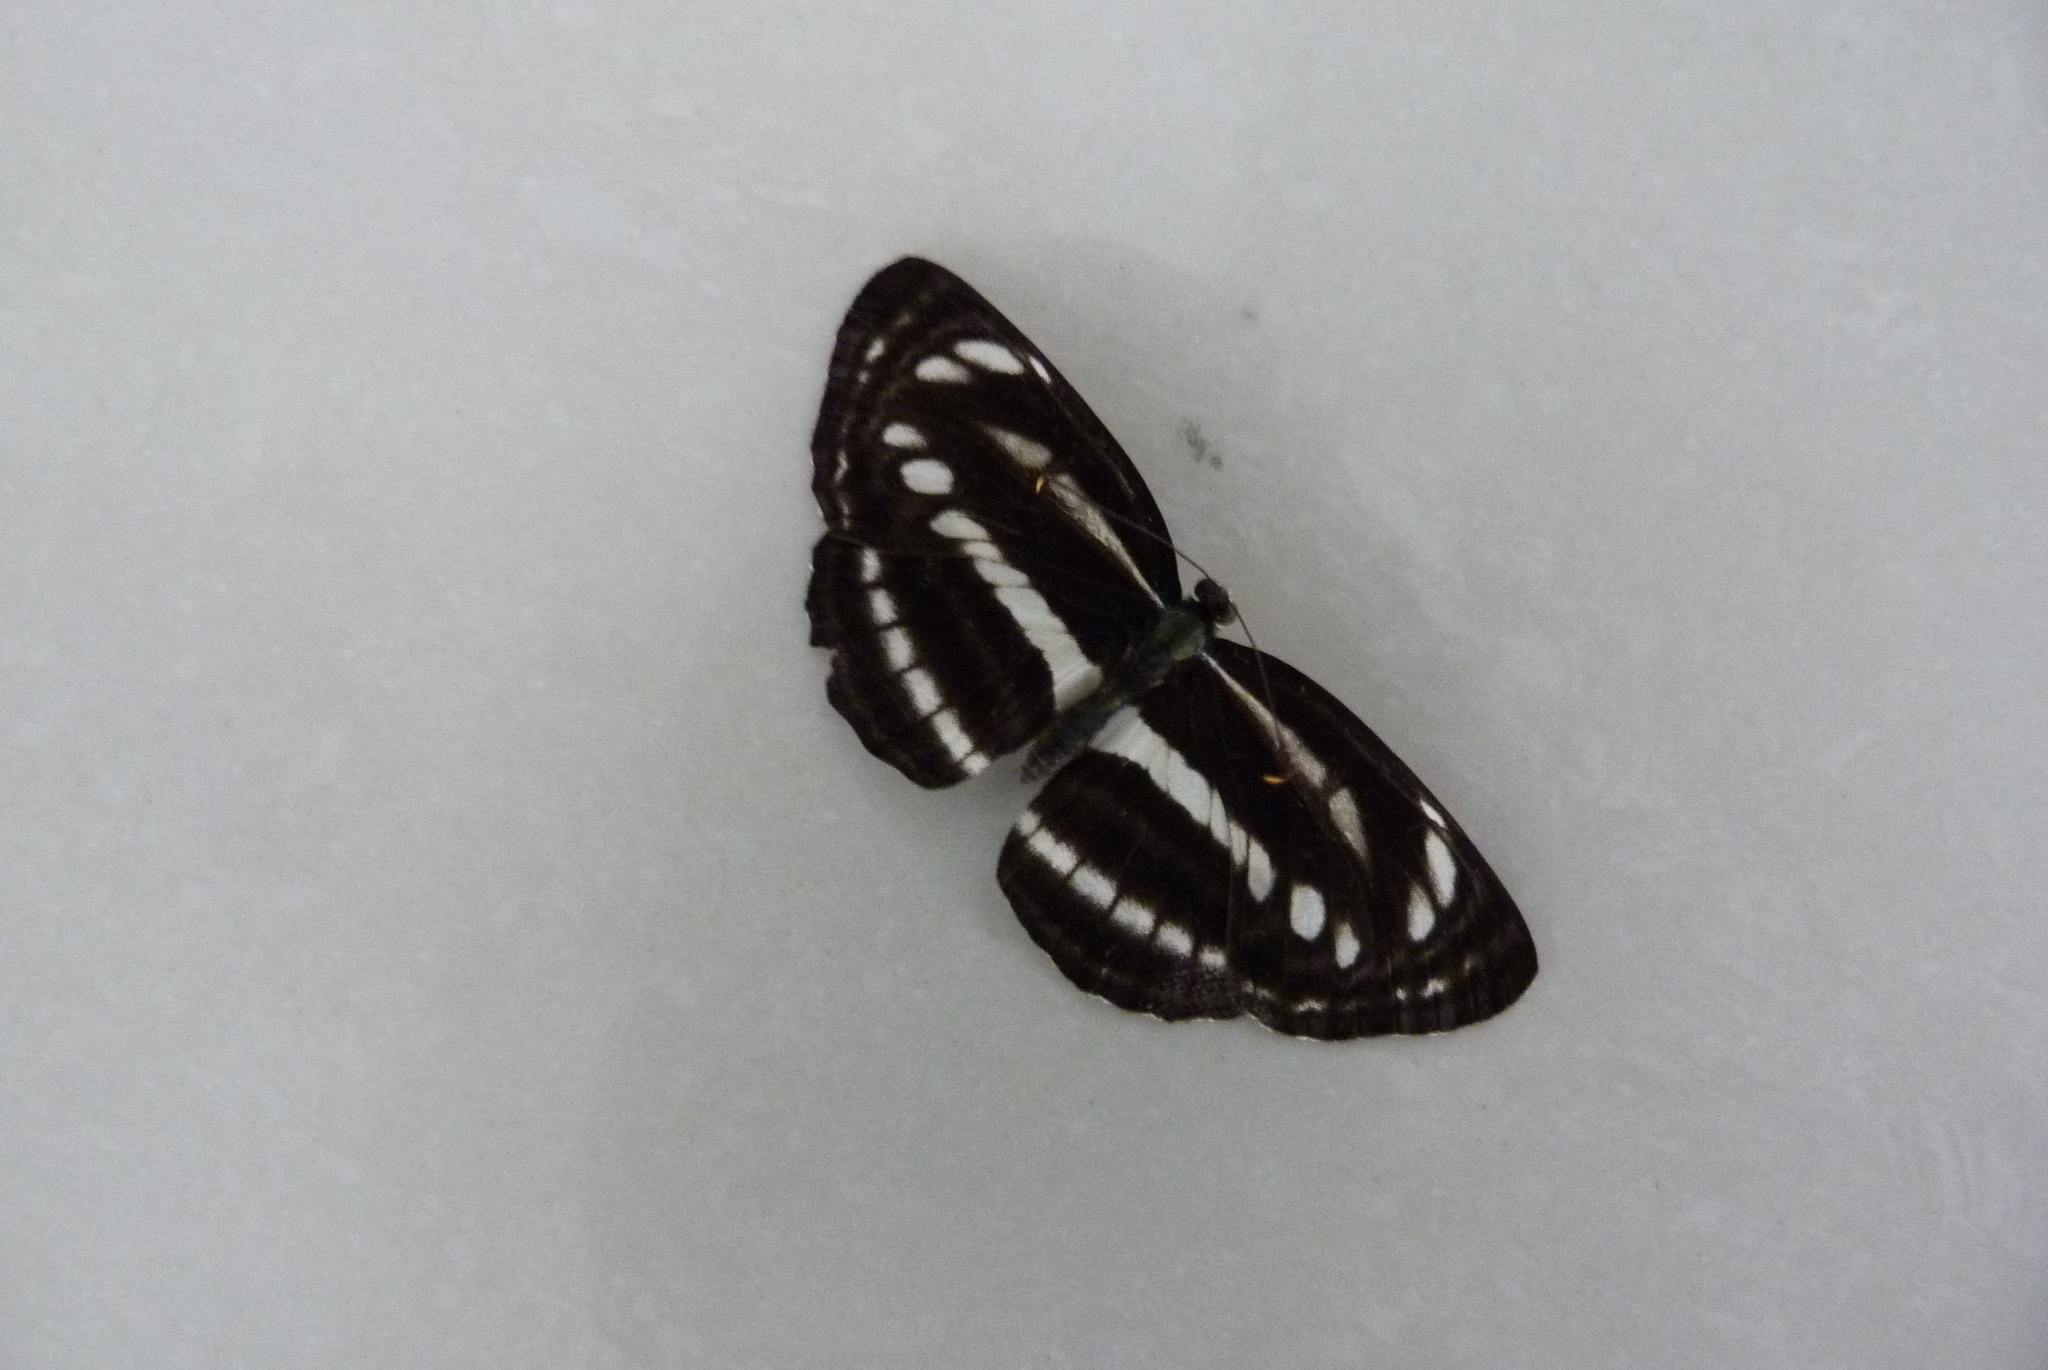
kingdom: Animalia
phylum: Arthropoda
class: Insecta
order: Lepidoptera
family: Nymphalidae
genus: Neptis
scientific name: Neptis clinia
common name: Southern sullied sailer
